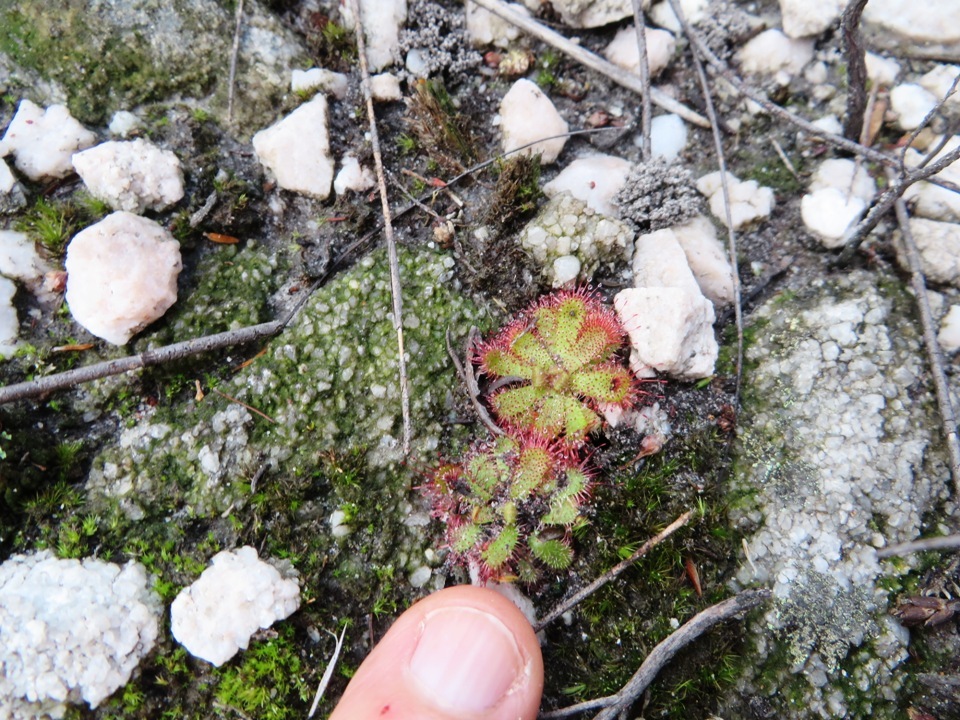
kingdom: Plantae
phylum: Tracheophyta
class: Magnoliopsida
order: Caryophyllales
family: Droseraceae
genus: Drosera
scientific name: Drosera trinervia
